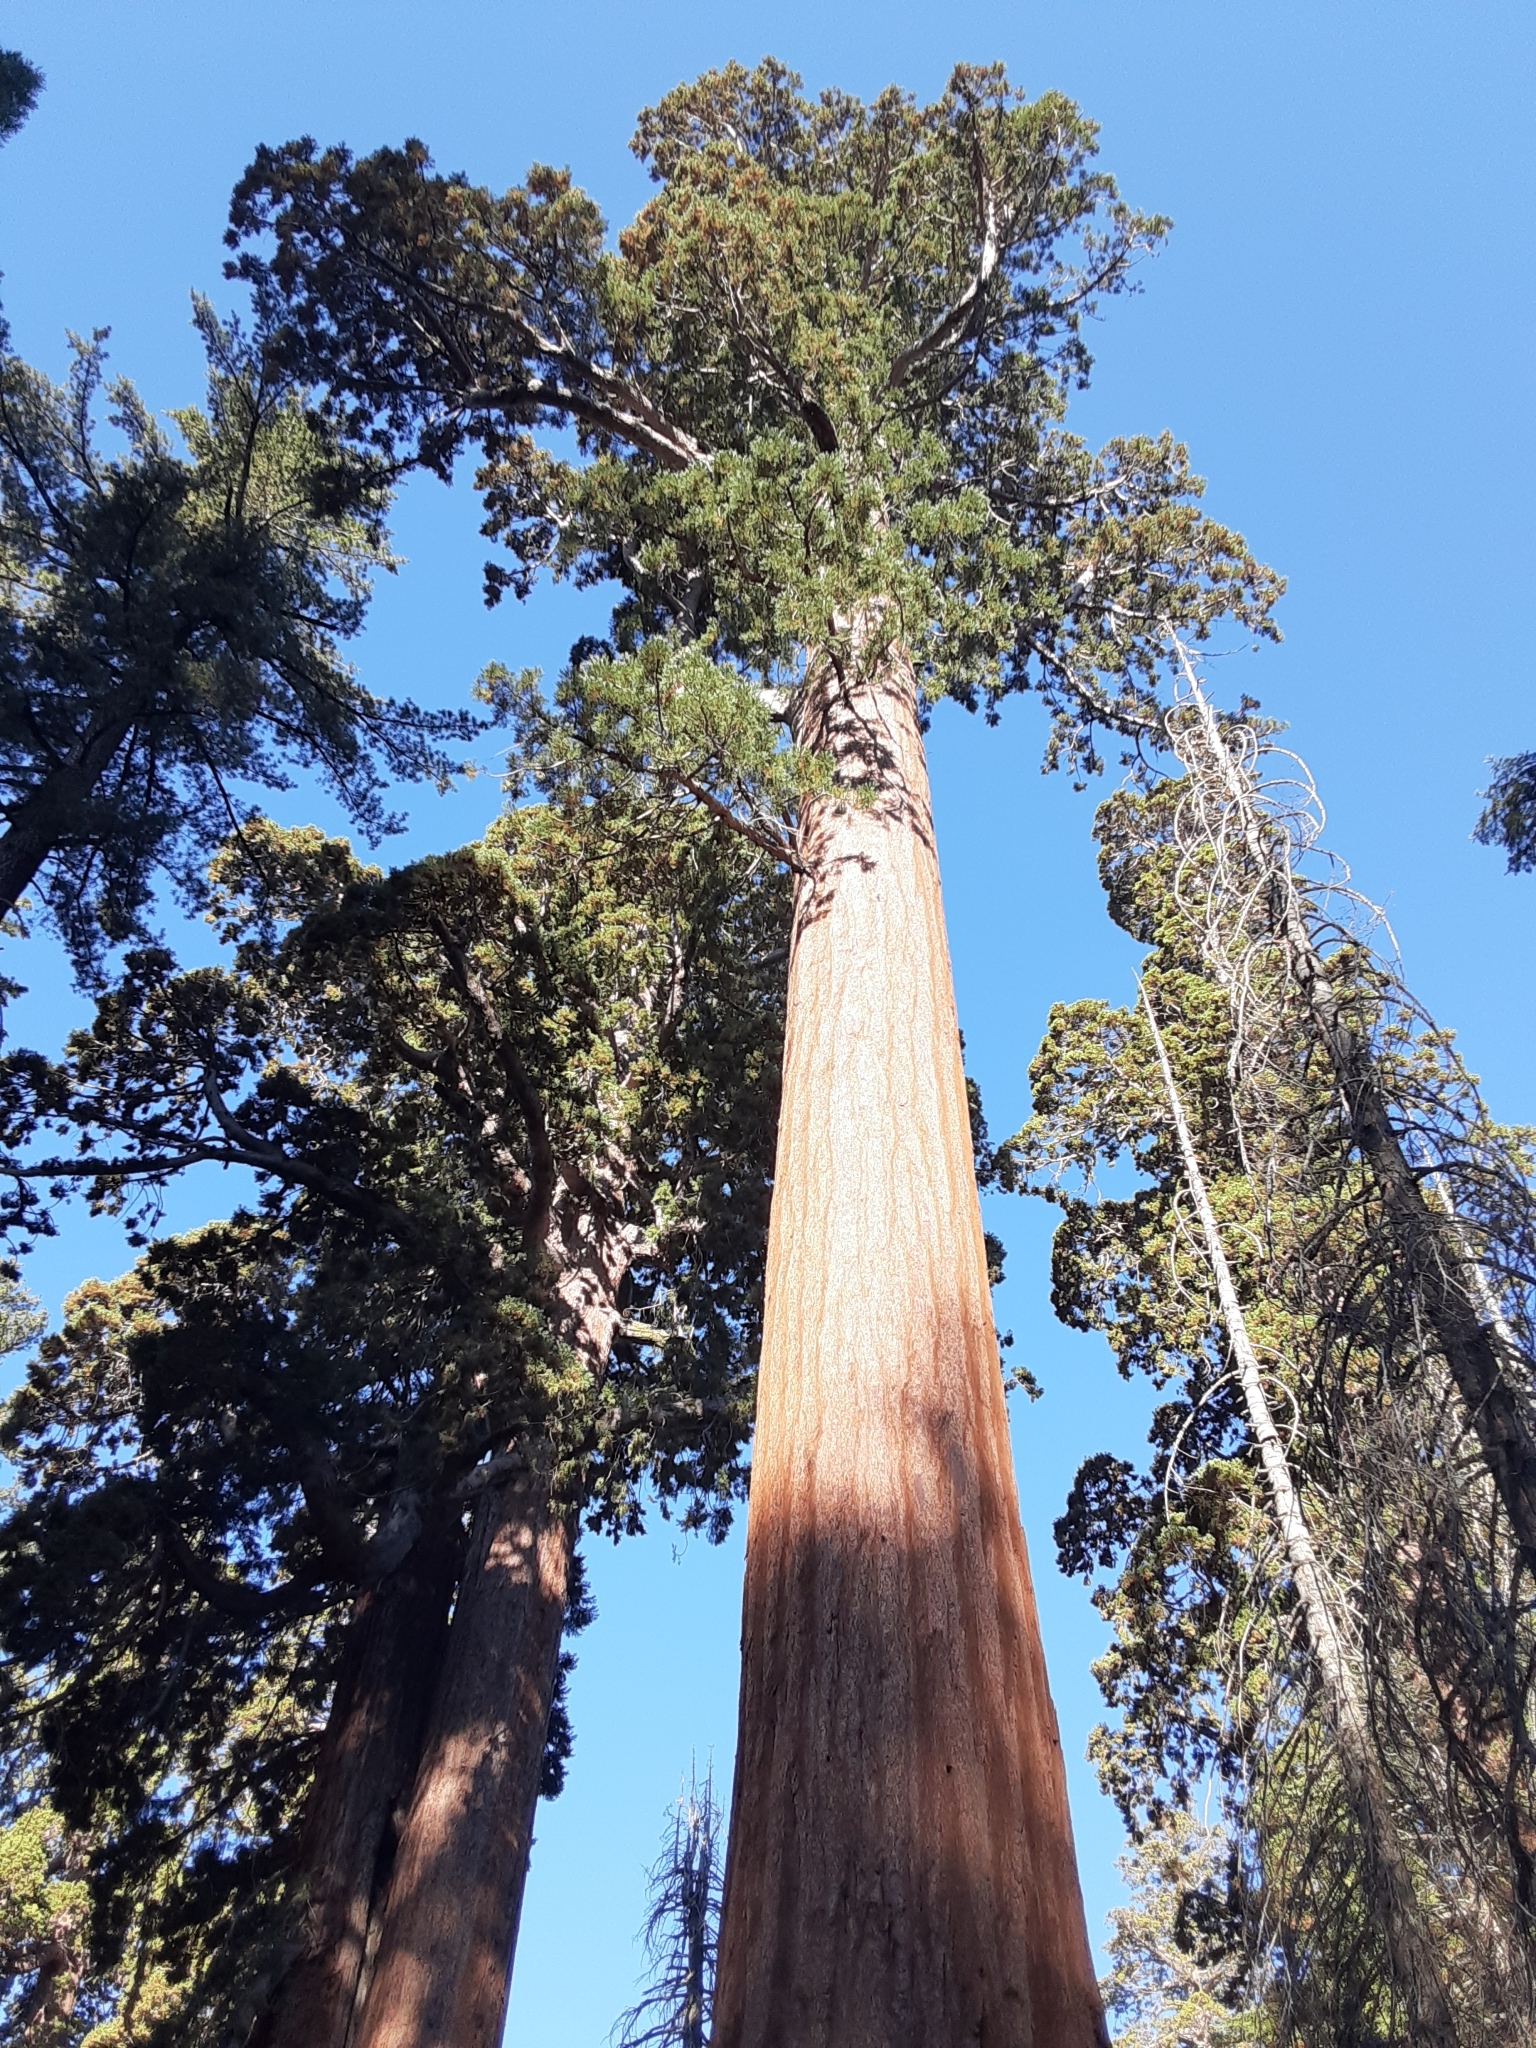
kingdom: Plantae
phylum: Tracheophyta
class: Pinopsida
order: Pinales
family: Cupressaceae
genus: Sequoiadendron
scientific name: Sequoiadendron giganteum
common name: Wellingtonia
